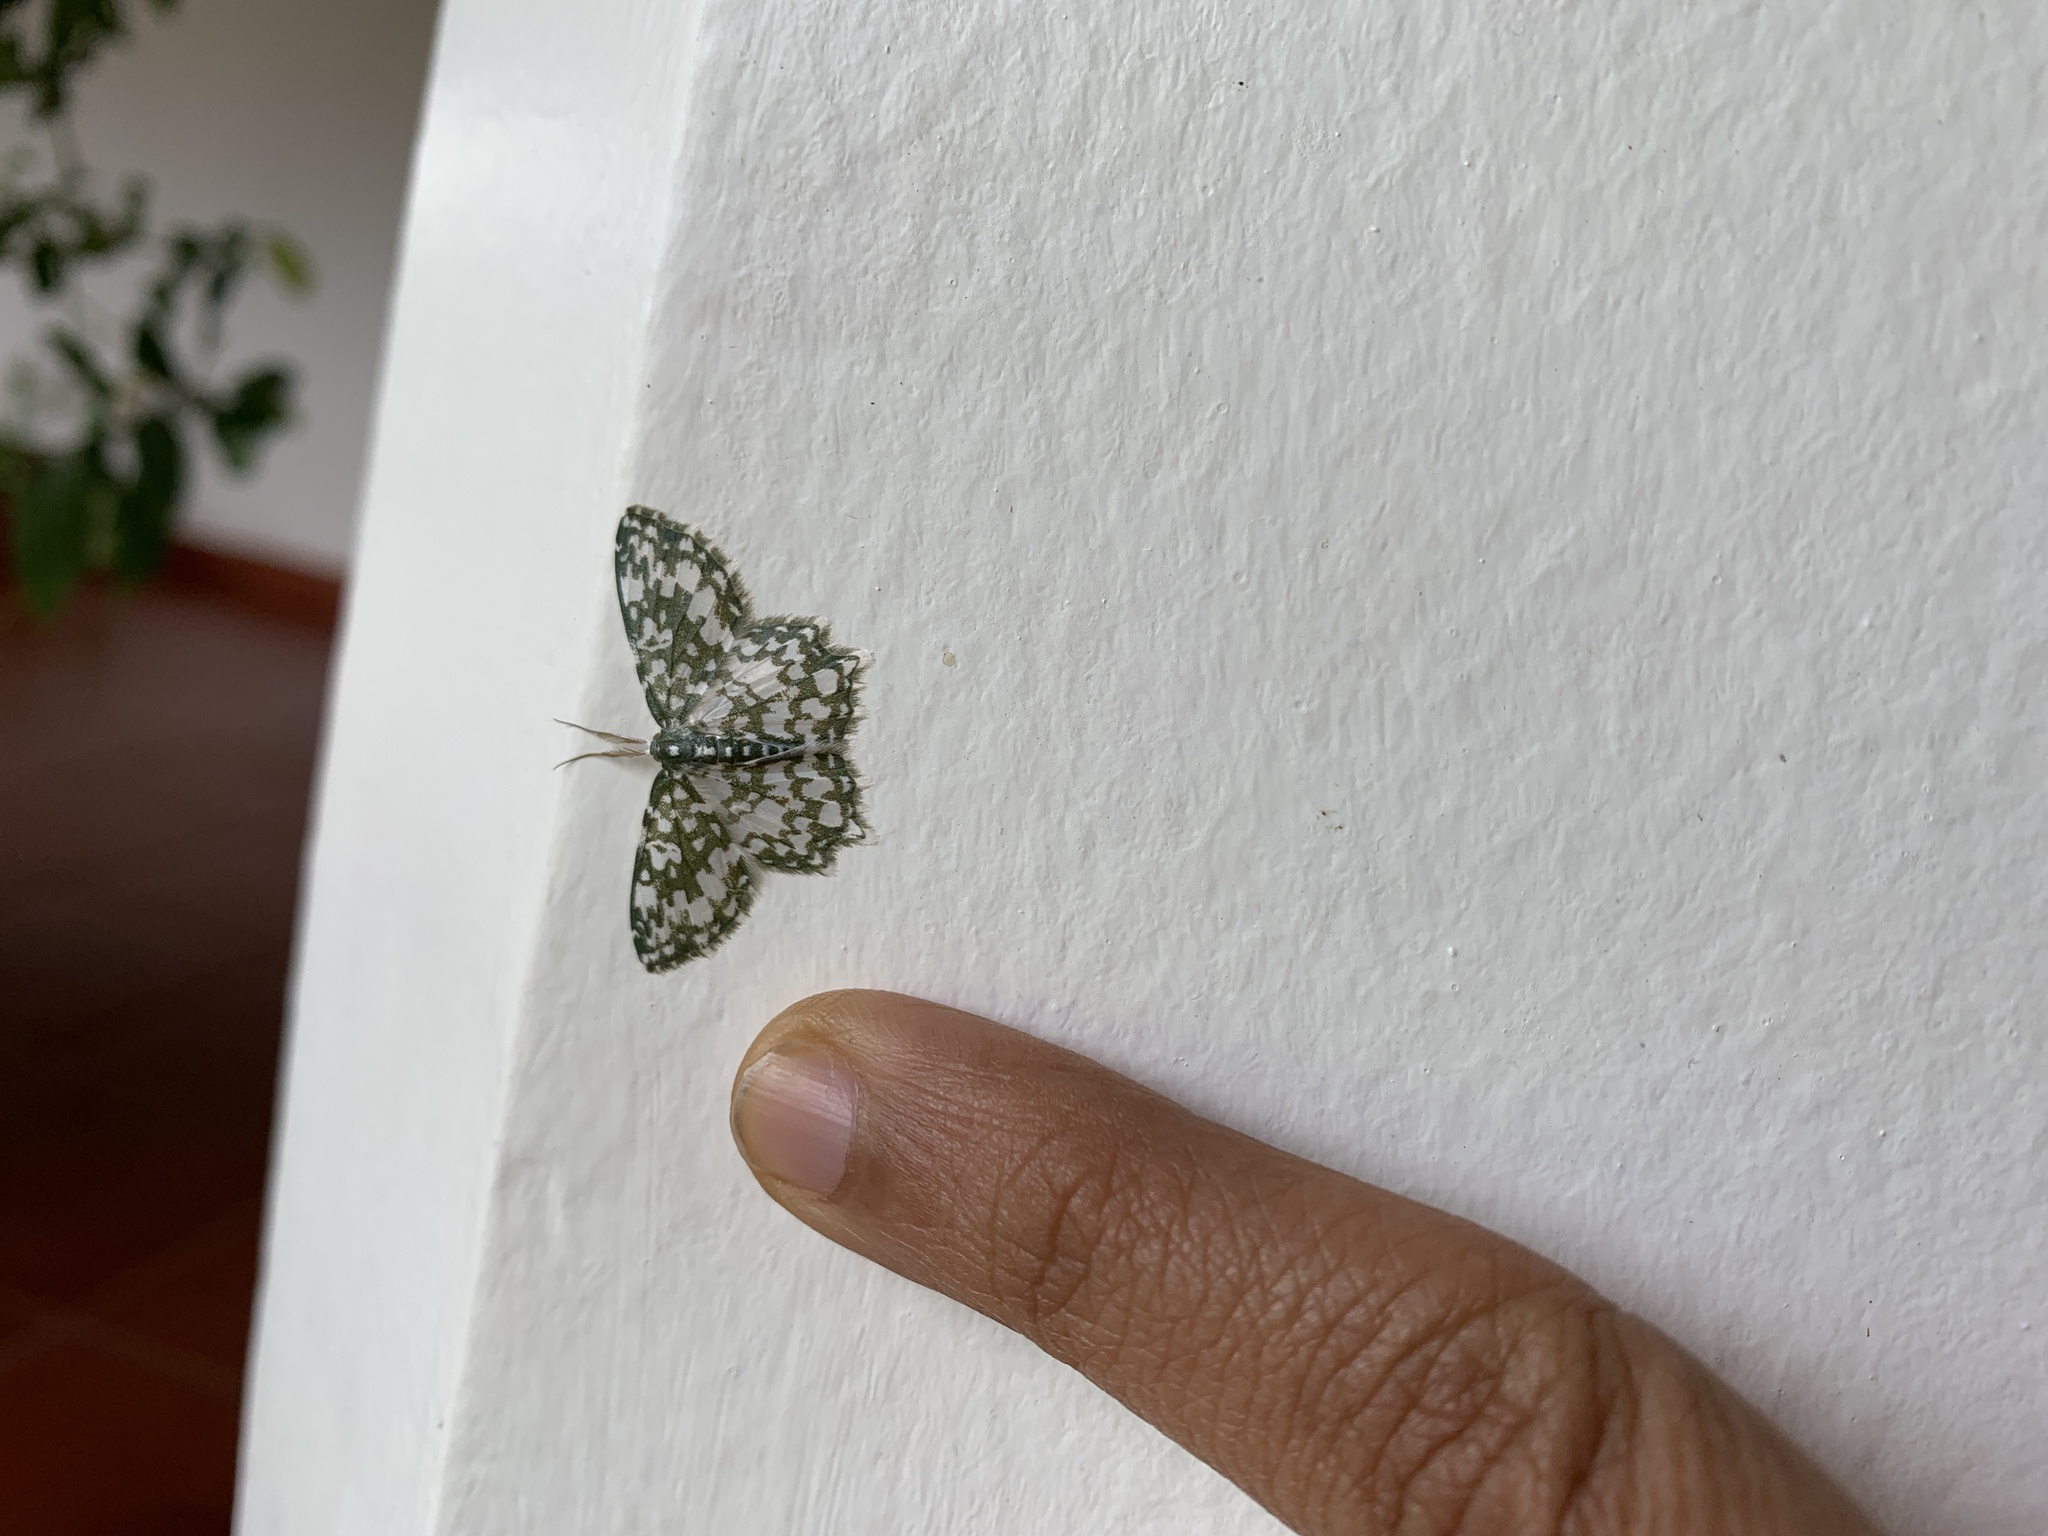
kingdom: Animalia
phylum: Arthropoda
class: Insecta
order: Lepidoptera
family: Geometridae
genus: Berta
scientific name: Berta chrysolineata
